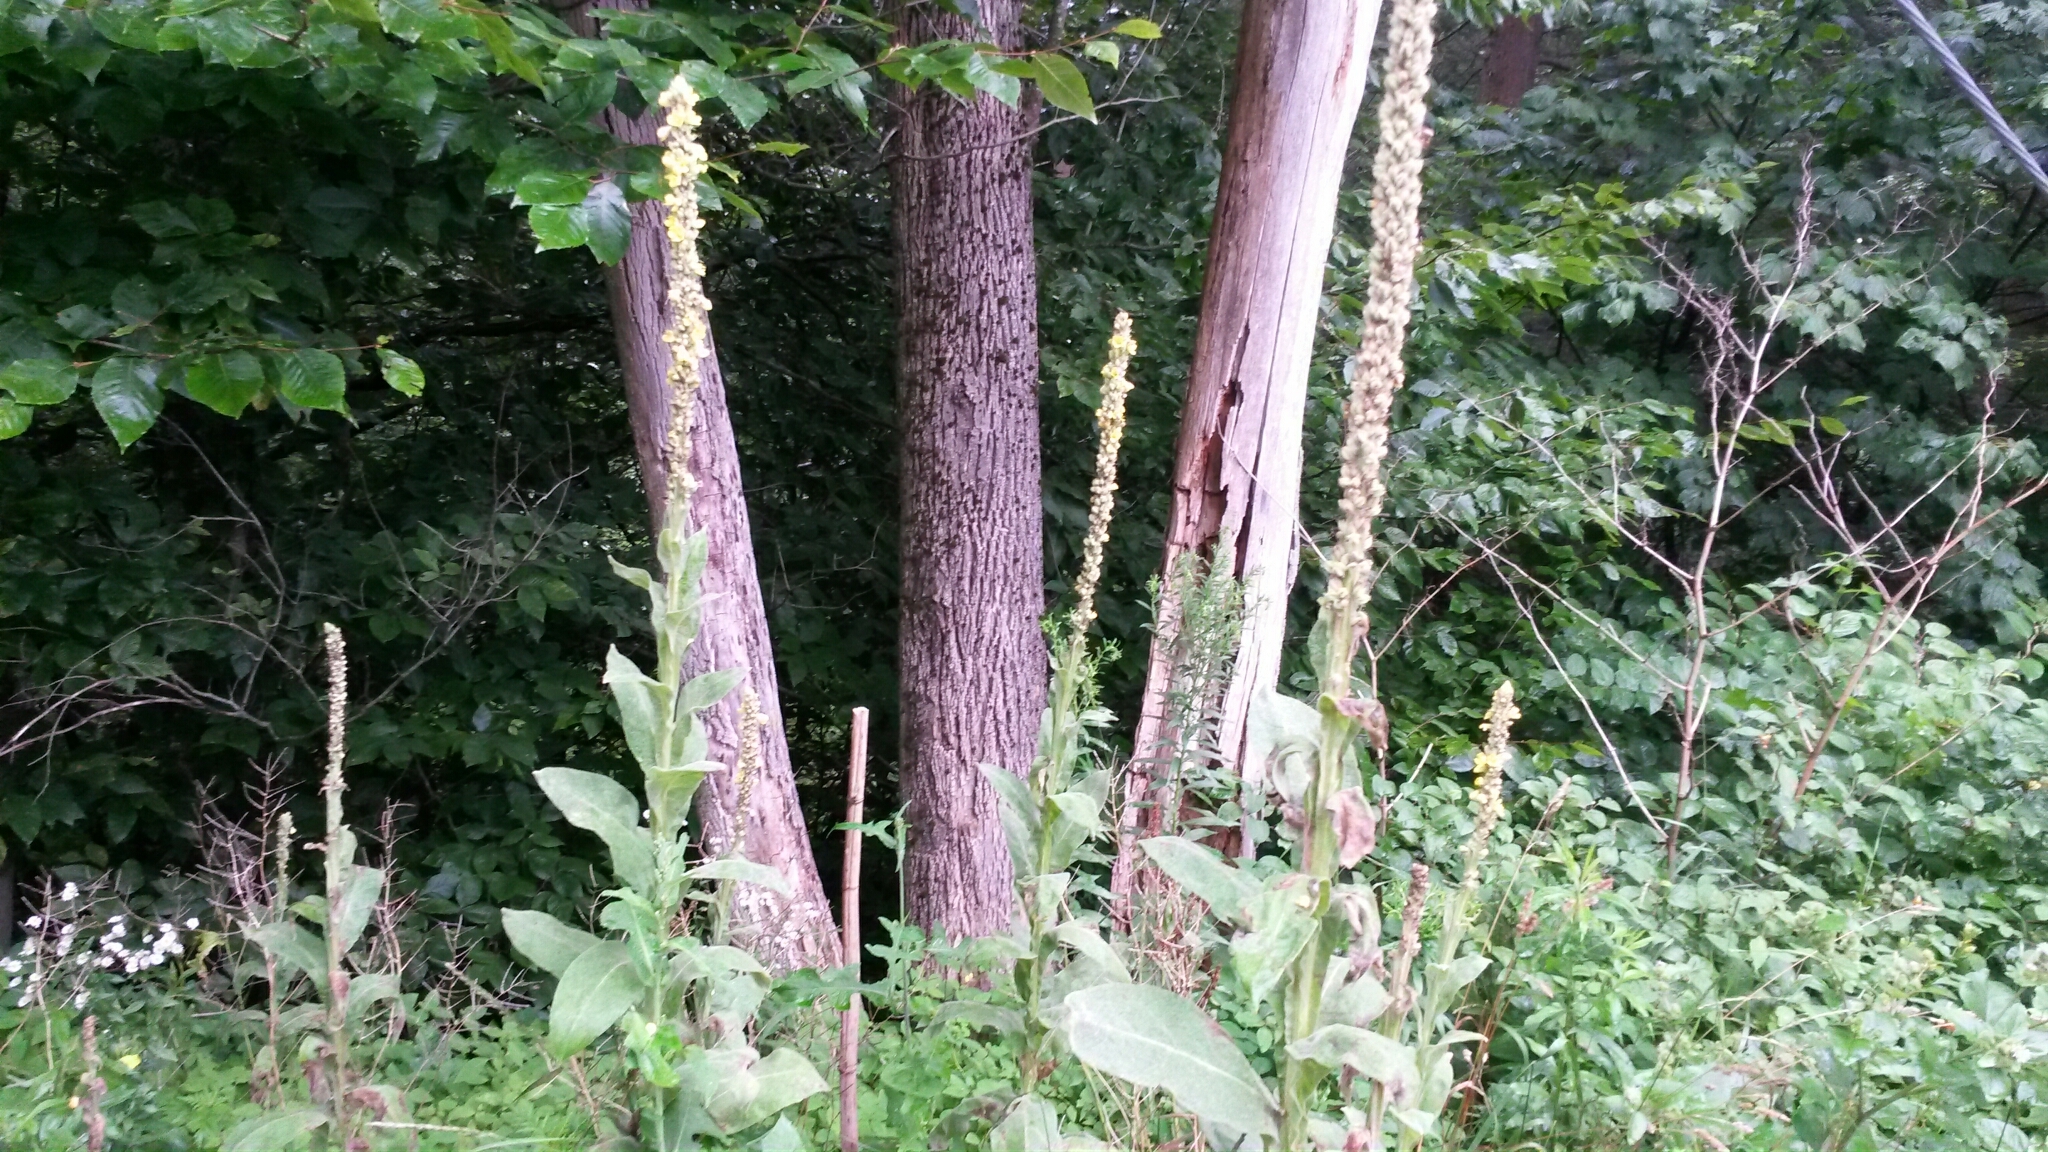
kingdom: Plantae
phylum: Tracheophyta
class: Magnoliopsida
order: Lamiales
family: Scrophulariaceae
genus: Verbascum
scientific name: Verbascum thapsus
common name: Common mullein
